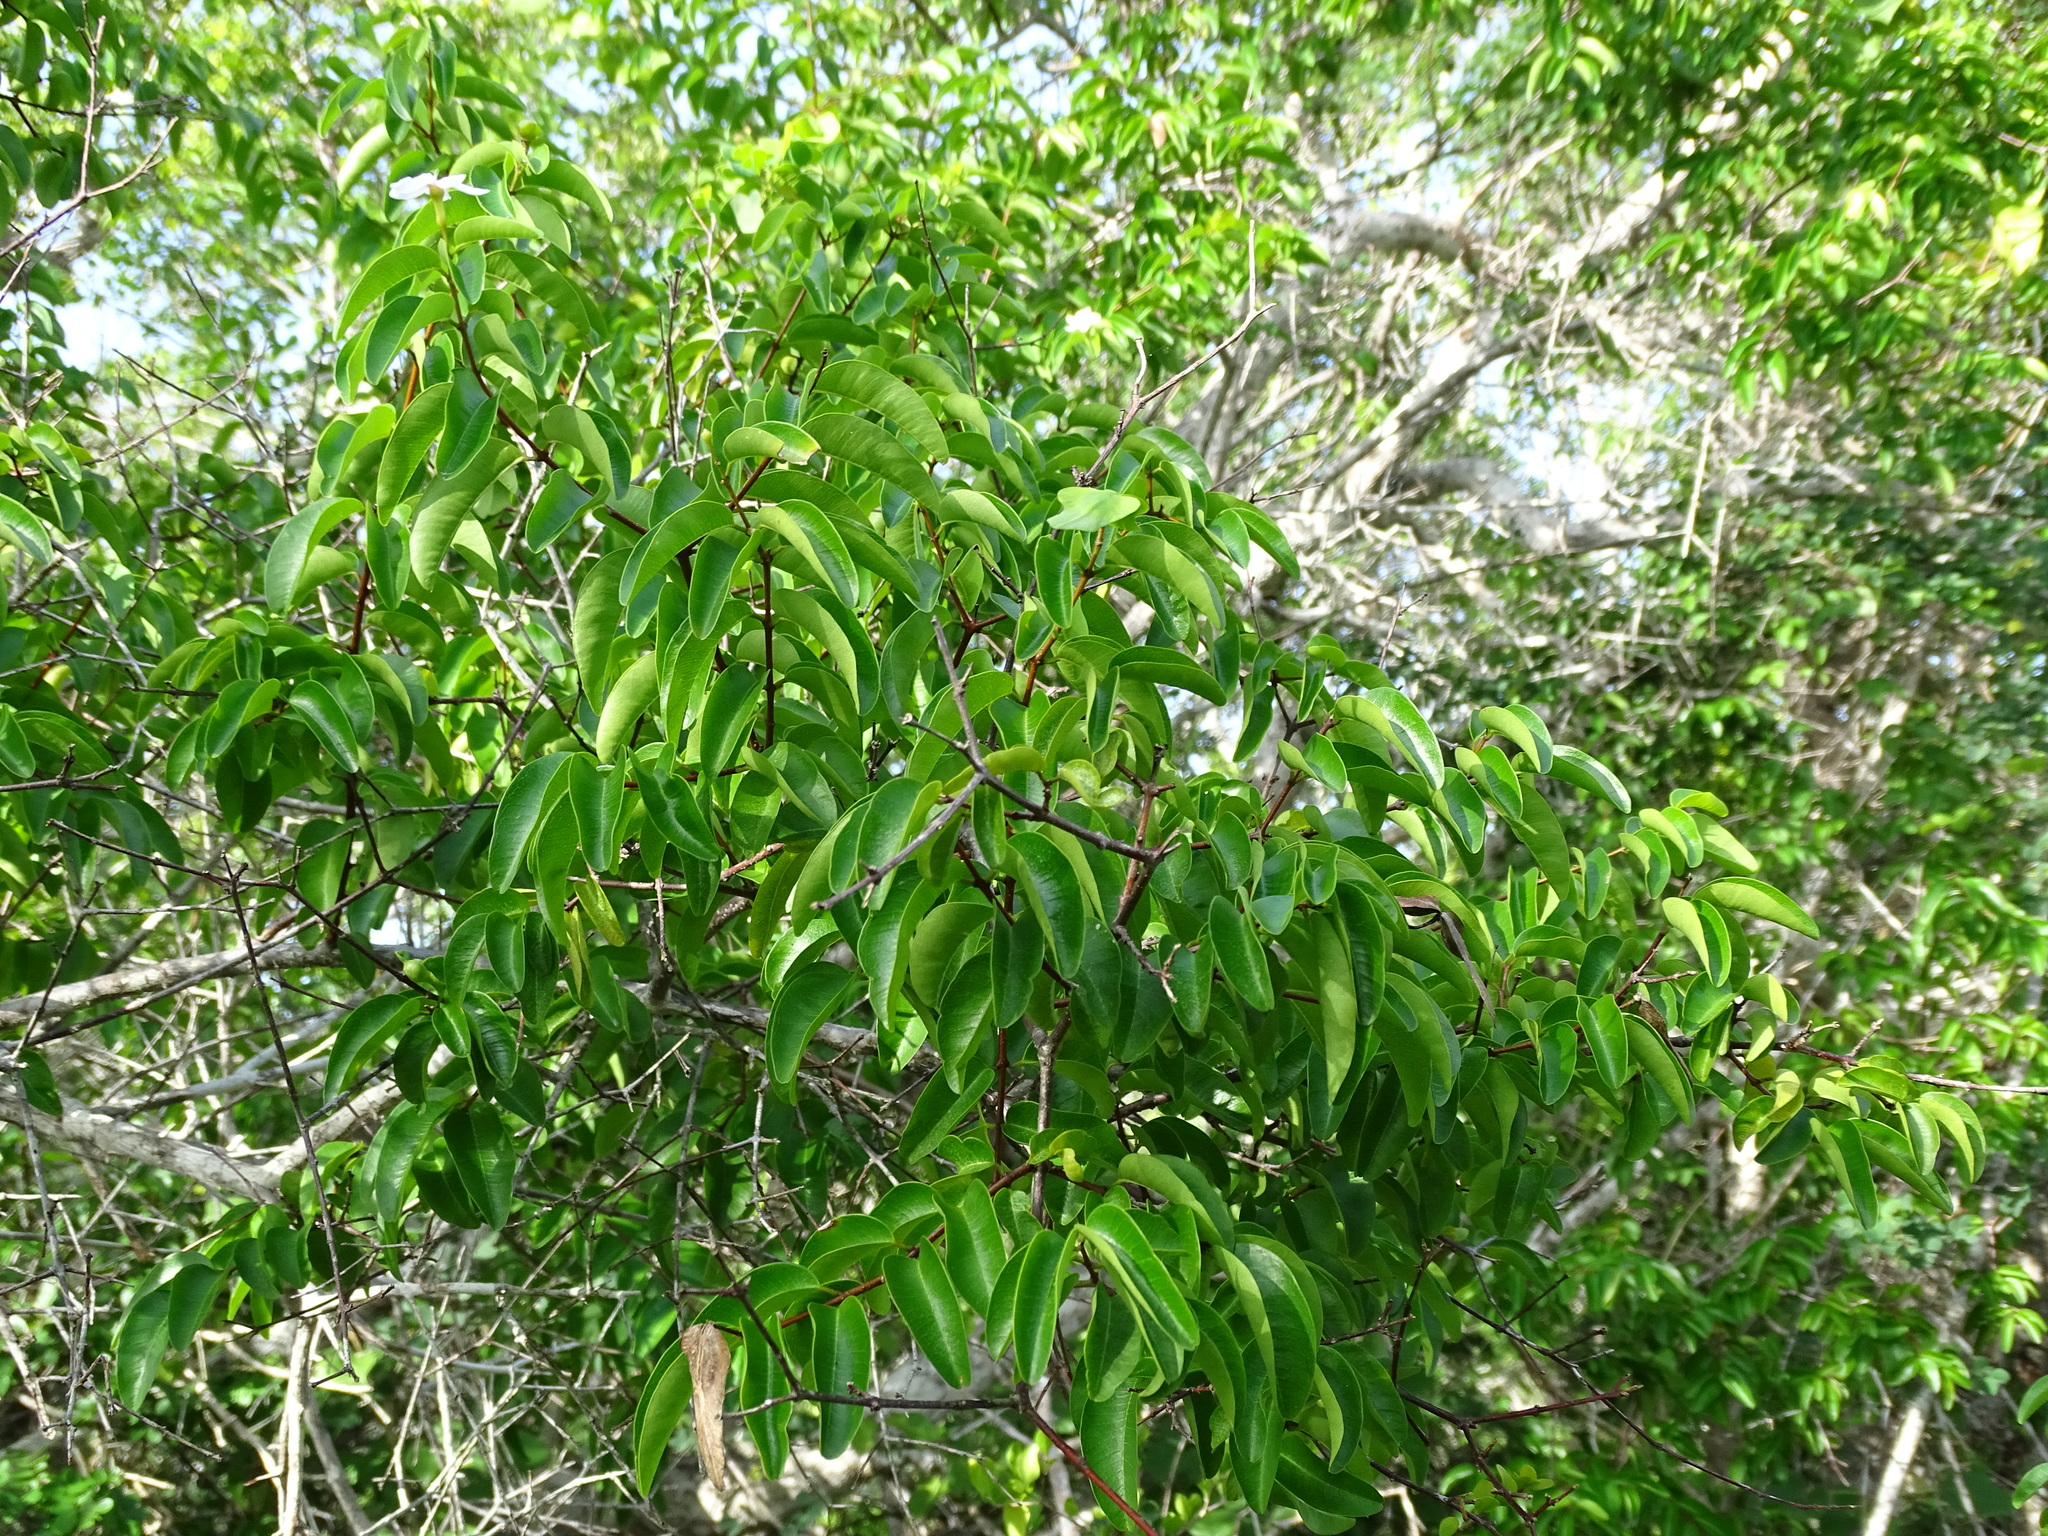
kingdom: Plantae
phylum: Tracheophyta
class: Magnoliopsida
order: Gentianales
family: Apocynaceae
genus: Cameraria
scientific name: Cameraria latifolia
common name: Savanna white poisonwood
